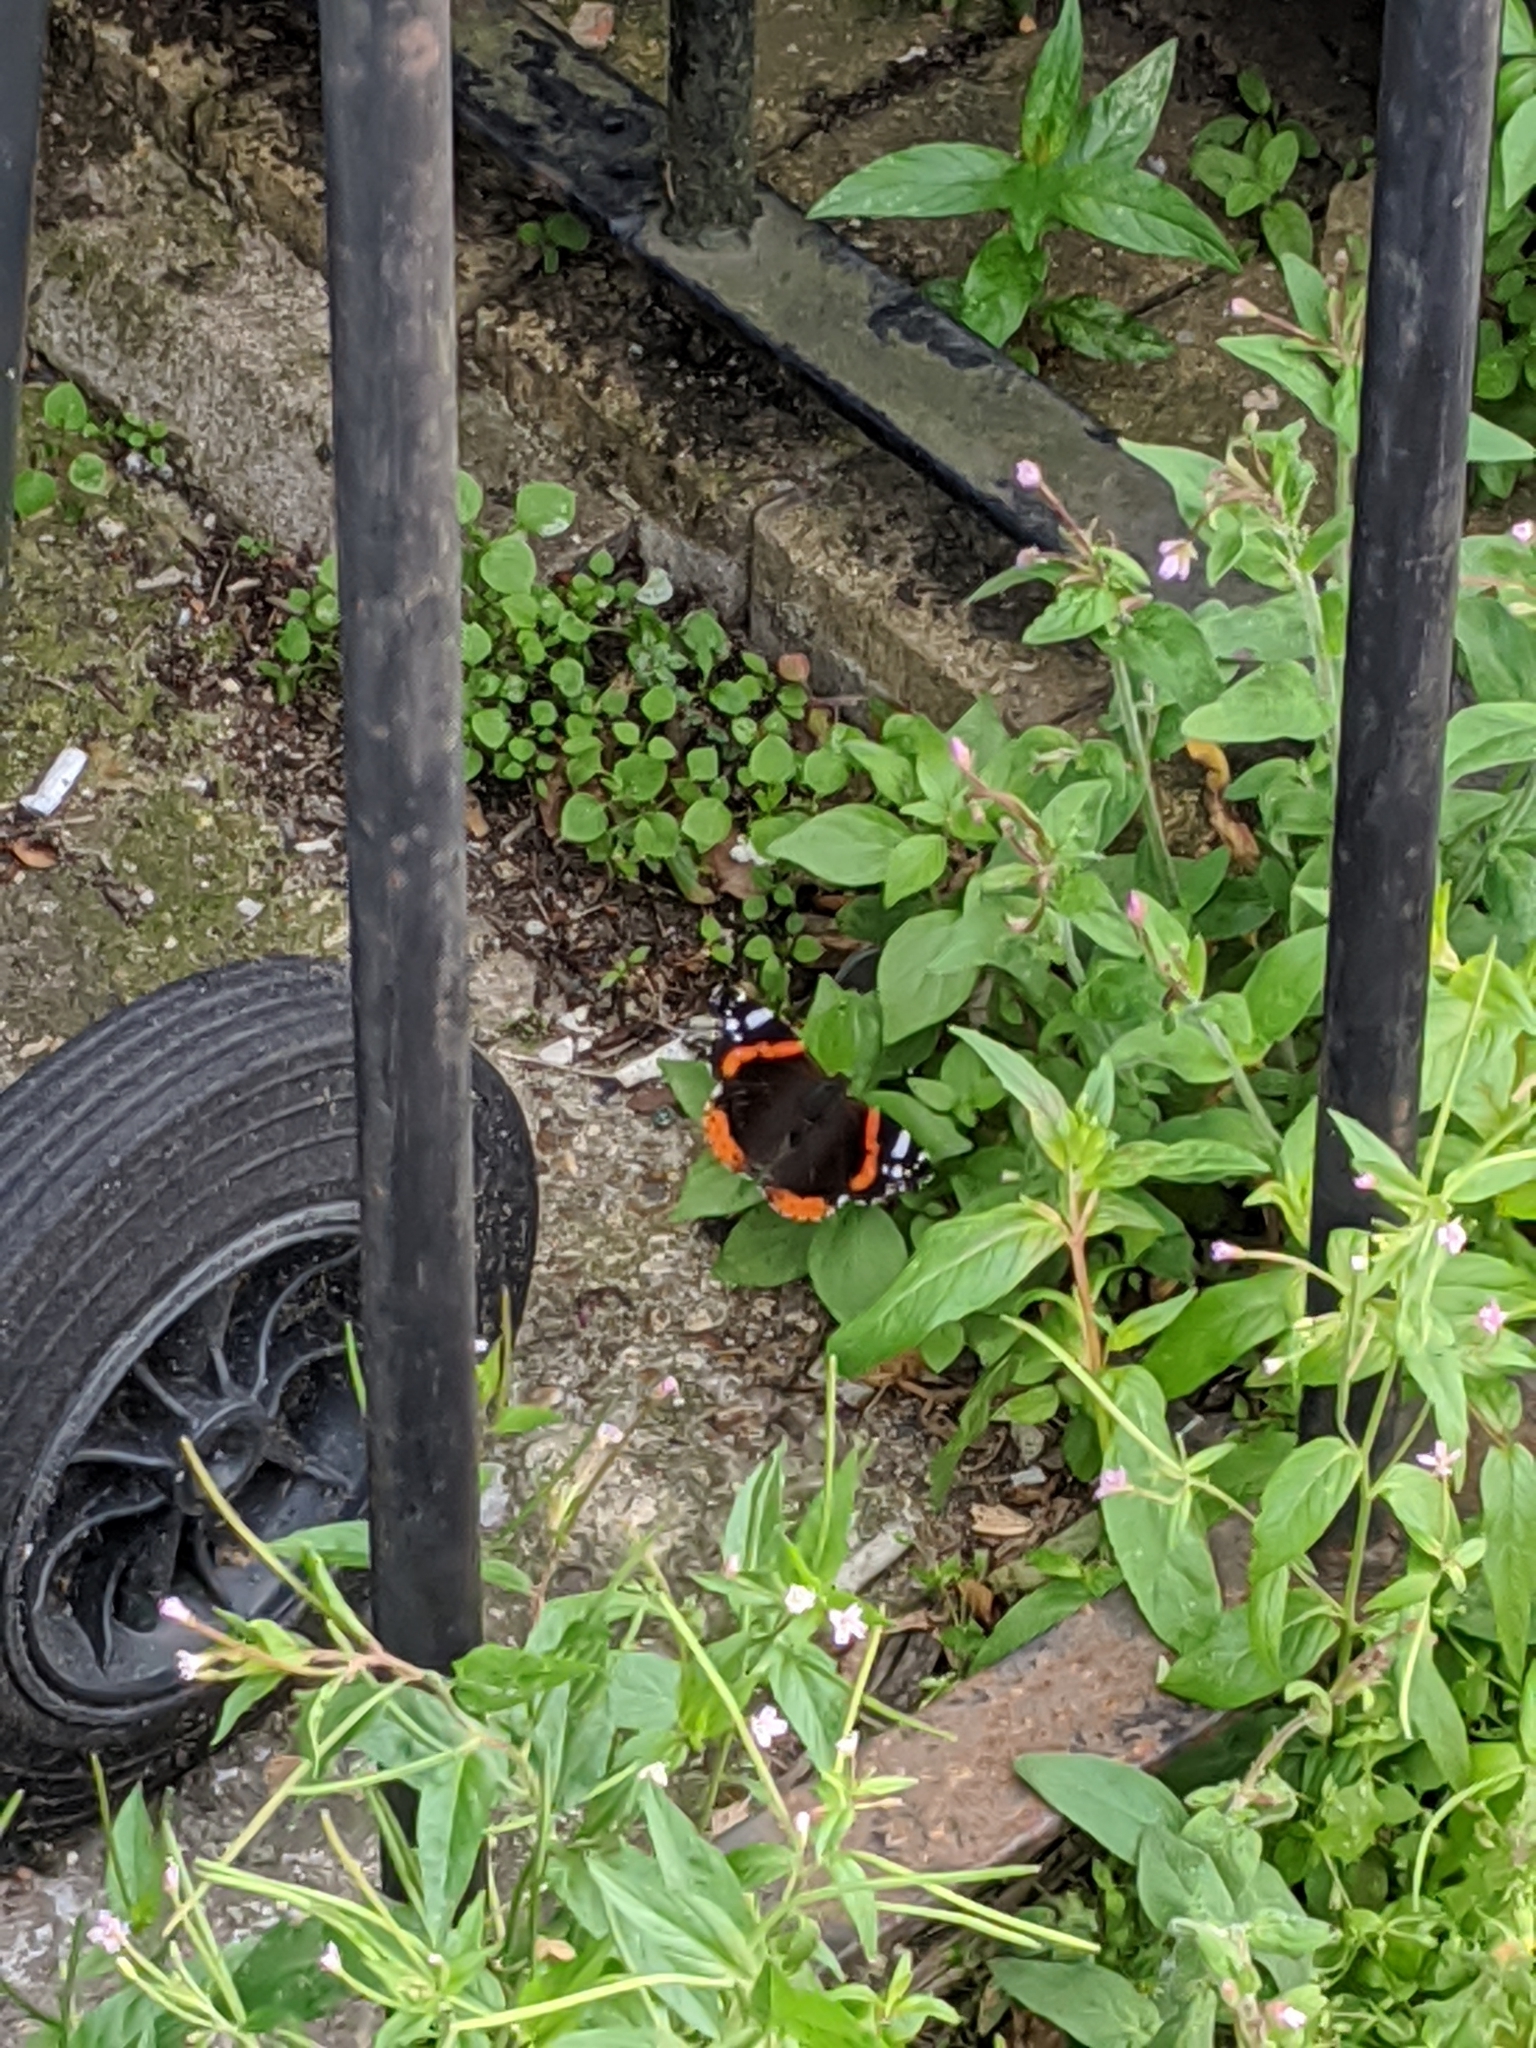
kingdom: Animalia
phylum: Arthropoda
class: Insecta
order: Lepidoptera
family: Nymphalidae
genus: Vanessa
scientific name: Vanessa atalanta
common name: Red admiral
